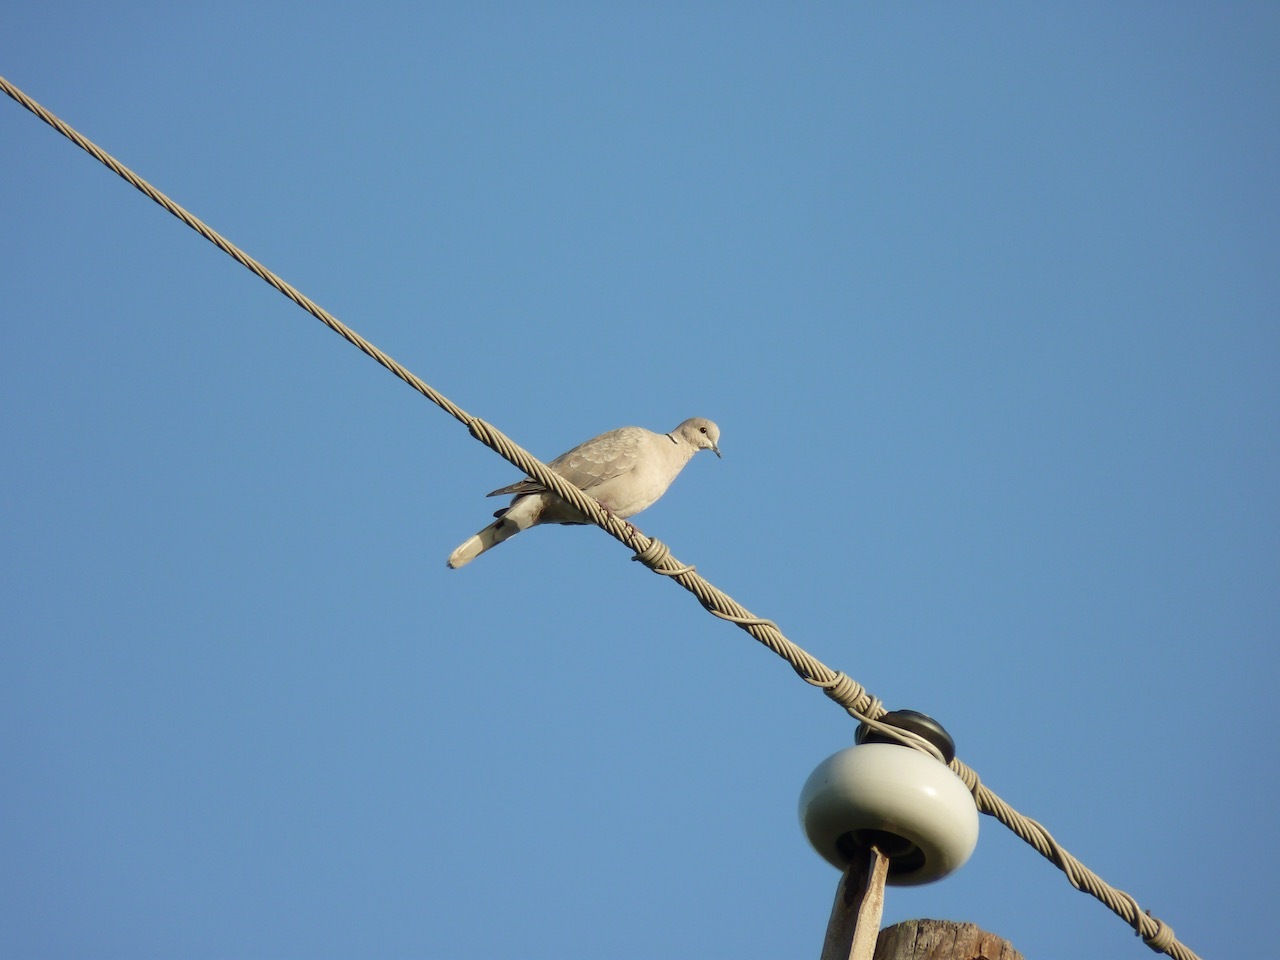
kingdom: Animalia
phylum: Chordata
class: Aves
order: Columbiformes
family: Columbidae
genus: Streptopelia
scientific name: Streptopelia decaocto
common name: Eurasian collared dove
